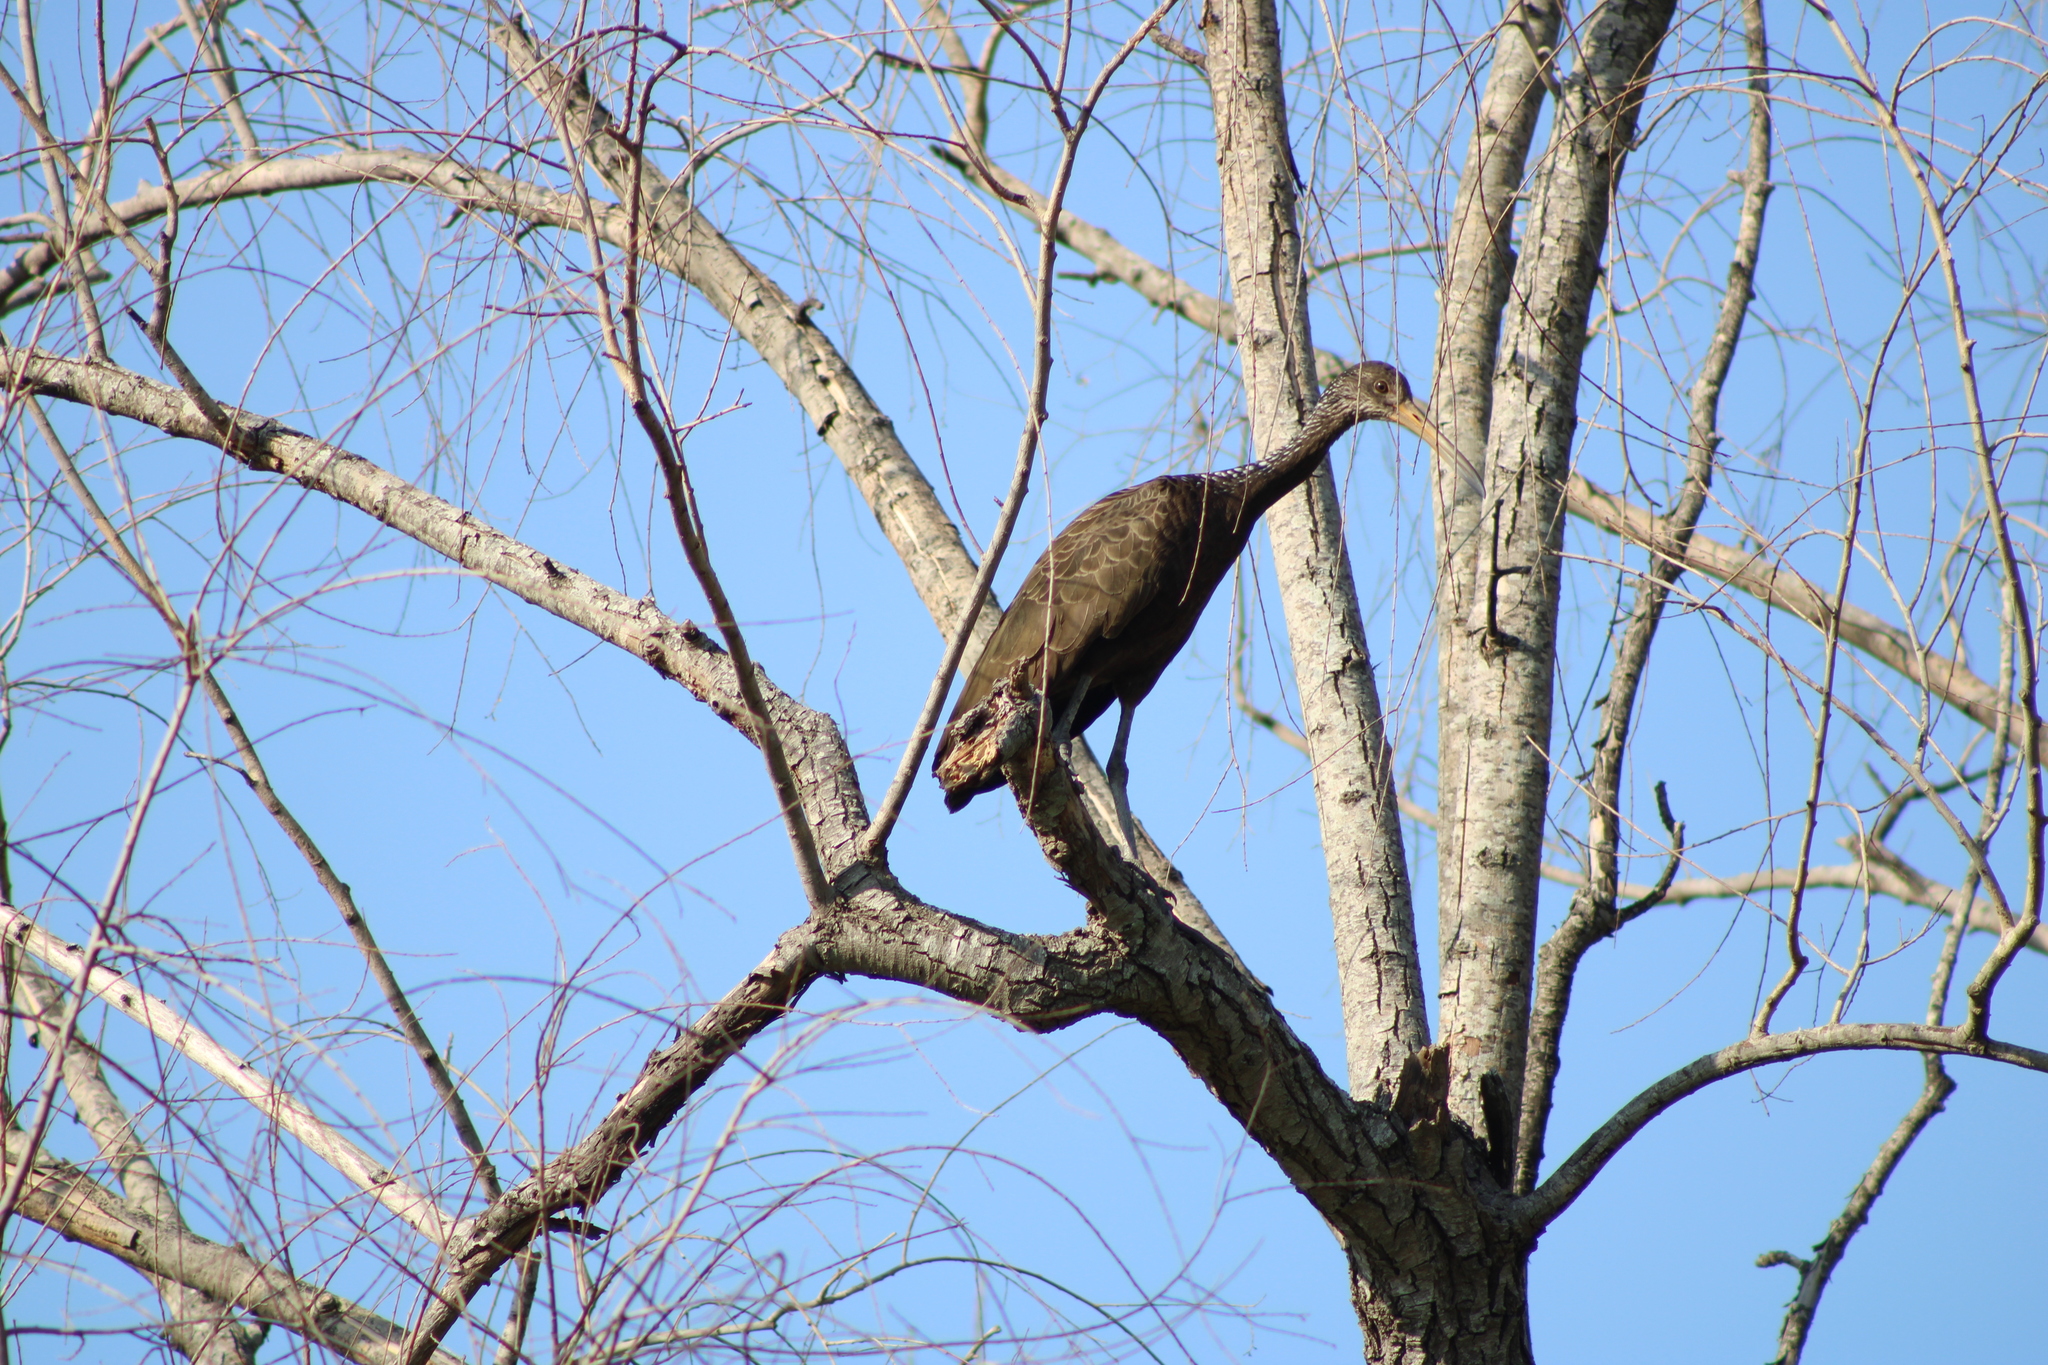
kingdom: Animalia
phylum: Chordata
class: Aves
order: Gruiformes
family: Aramidae
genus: Aramus
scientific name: Aramus guarauna
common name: Limpkin
